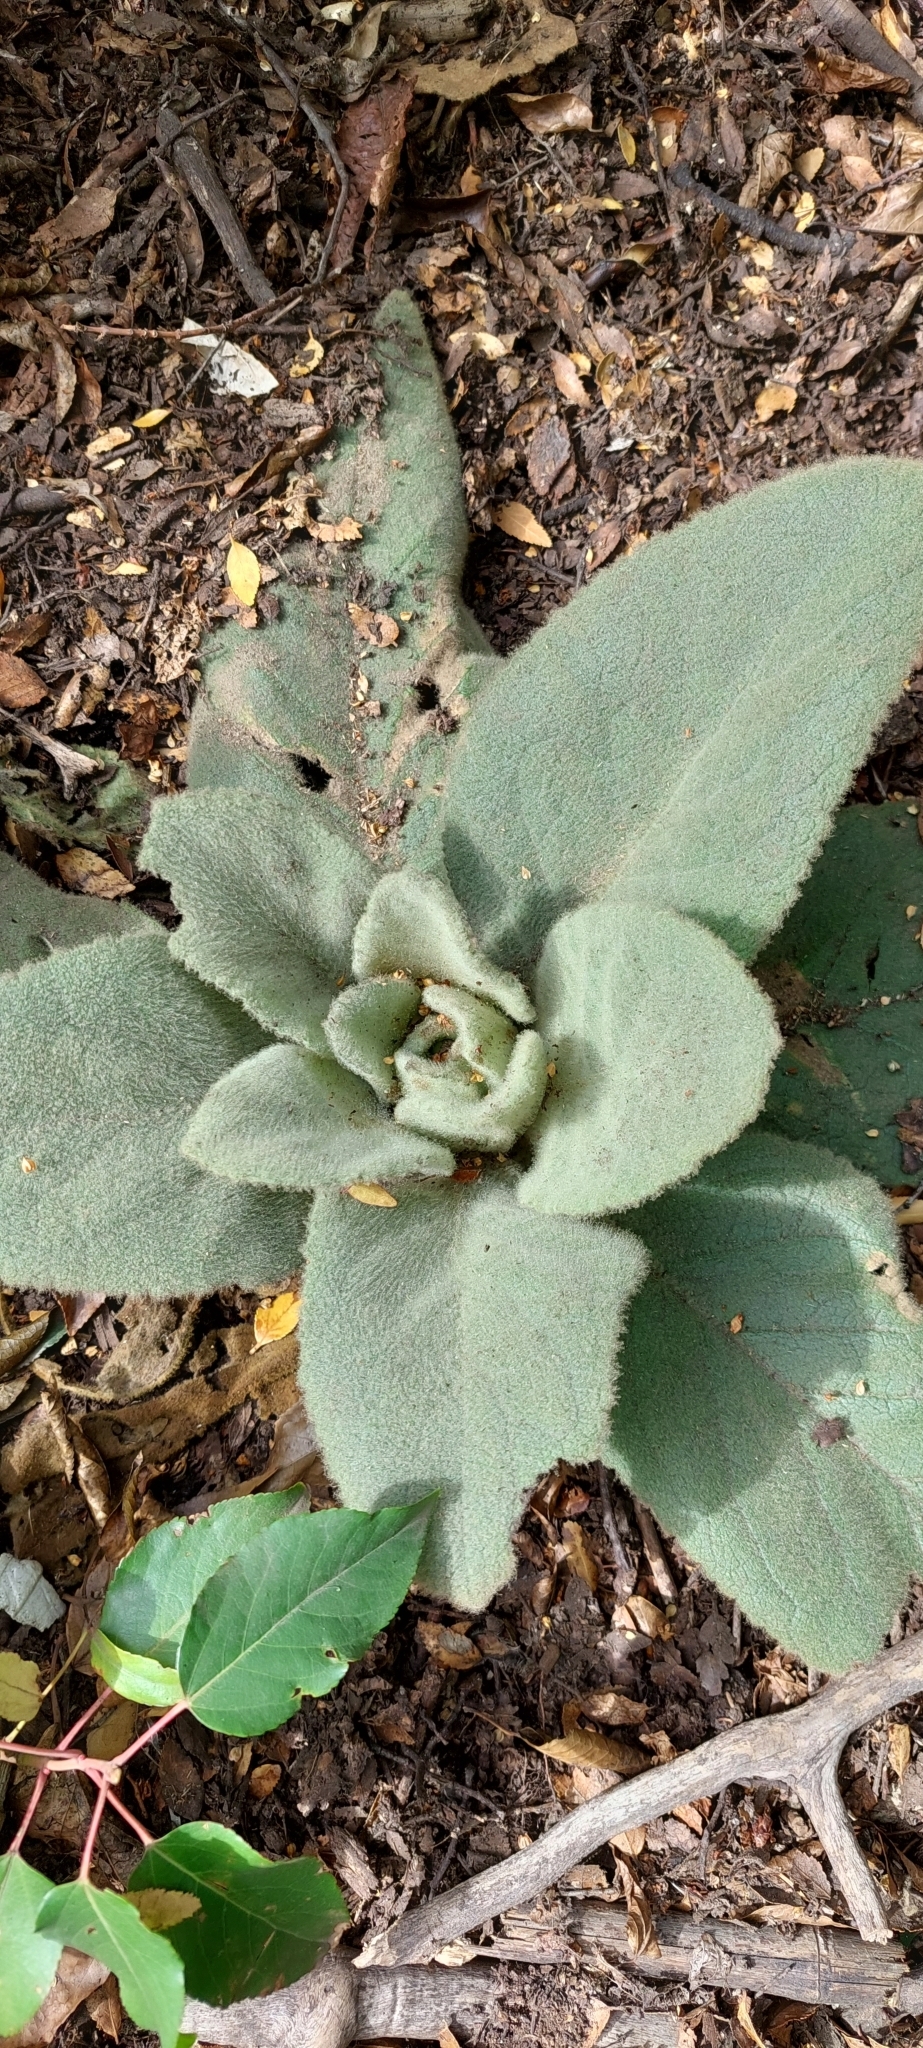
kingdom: Plantae
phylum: Tracheophyta
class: Magnoliopsida
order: Lamiales
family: Scrophulariaceae
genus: Verbascum
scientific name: Verbascum thapsus
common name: Common mullein
